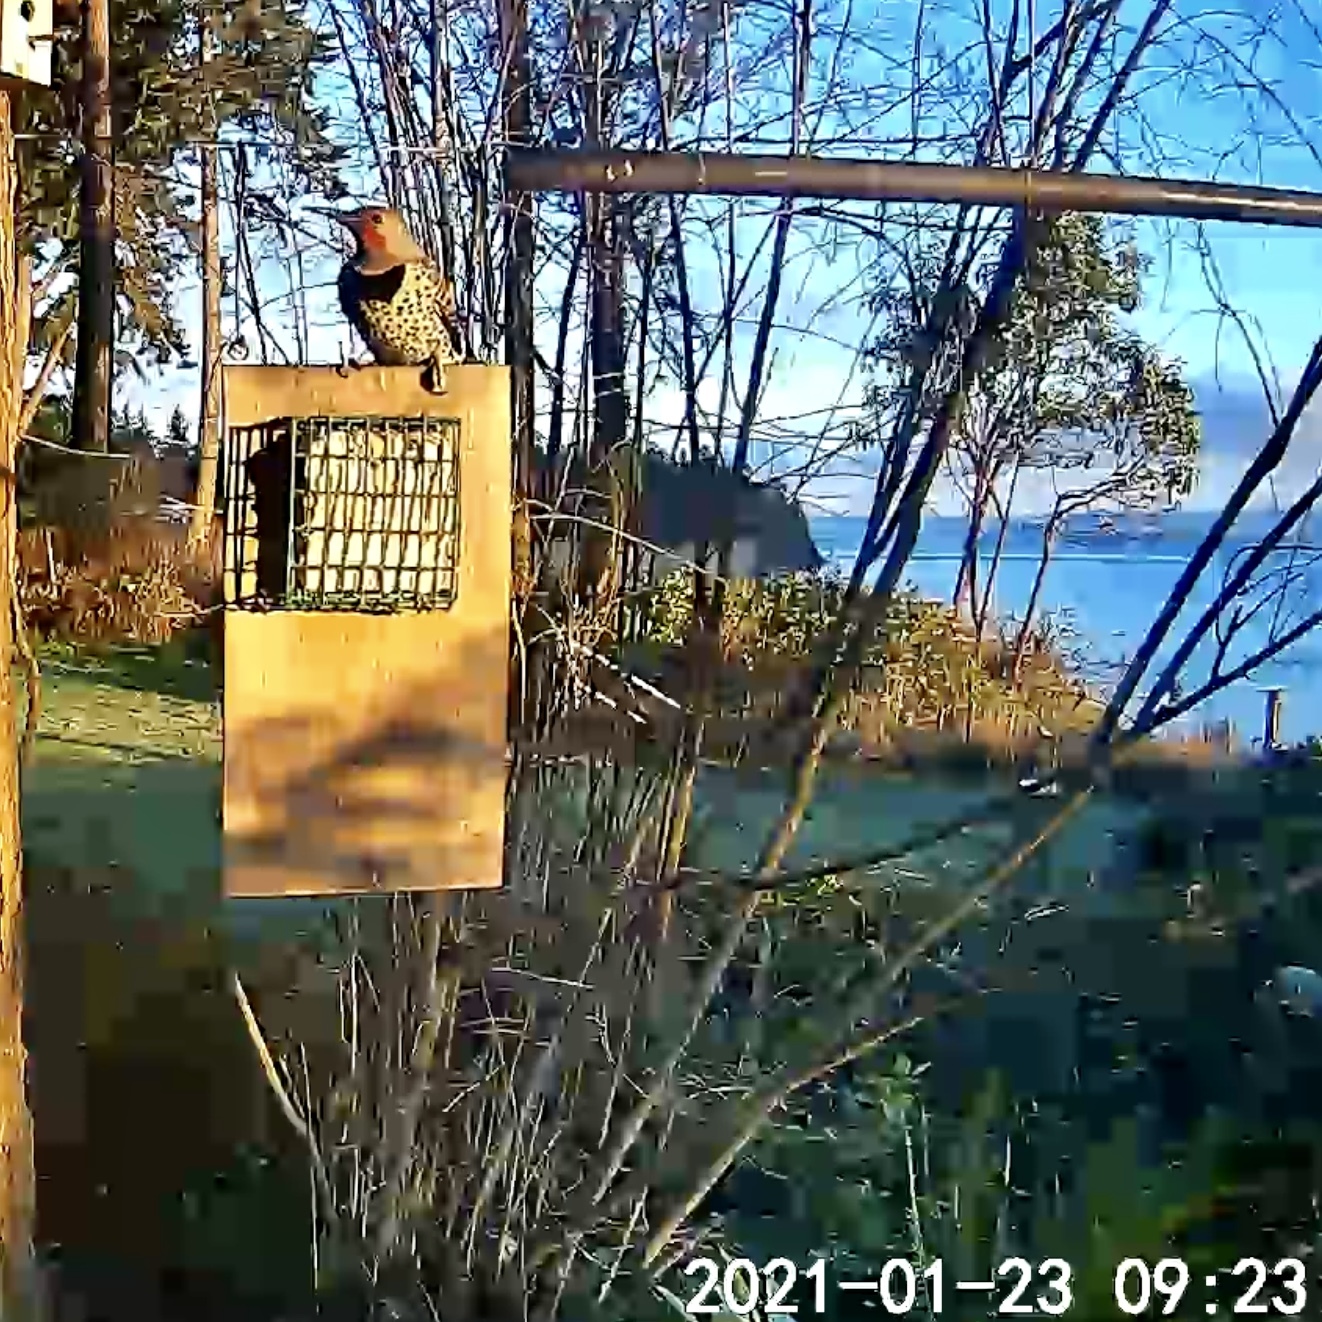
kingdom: Animalia
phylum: Chordata
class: Aves
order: Piciformes
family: Picidae
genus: Colaptes
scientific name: Colaptes auratus
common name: Northern flicker
